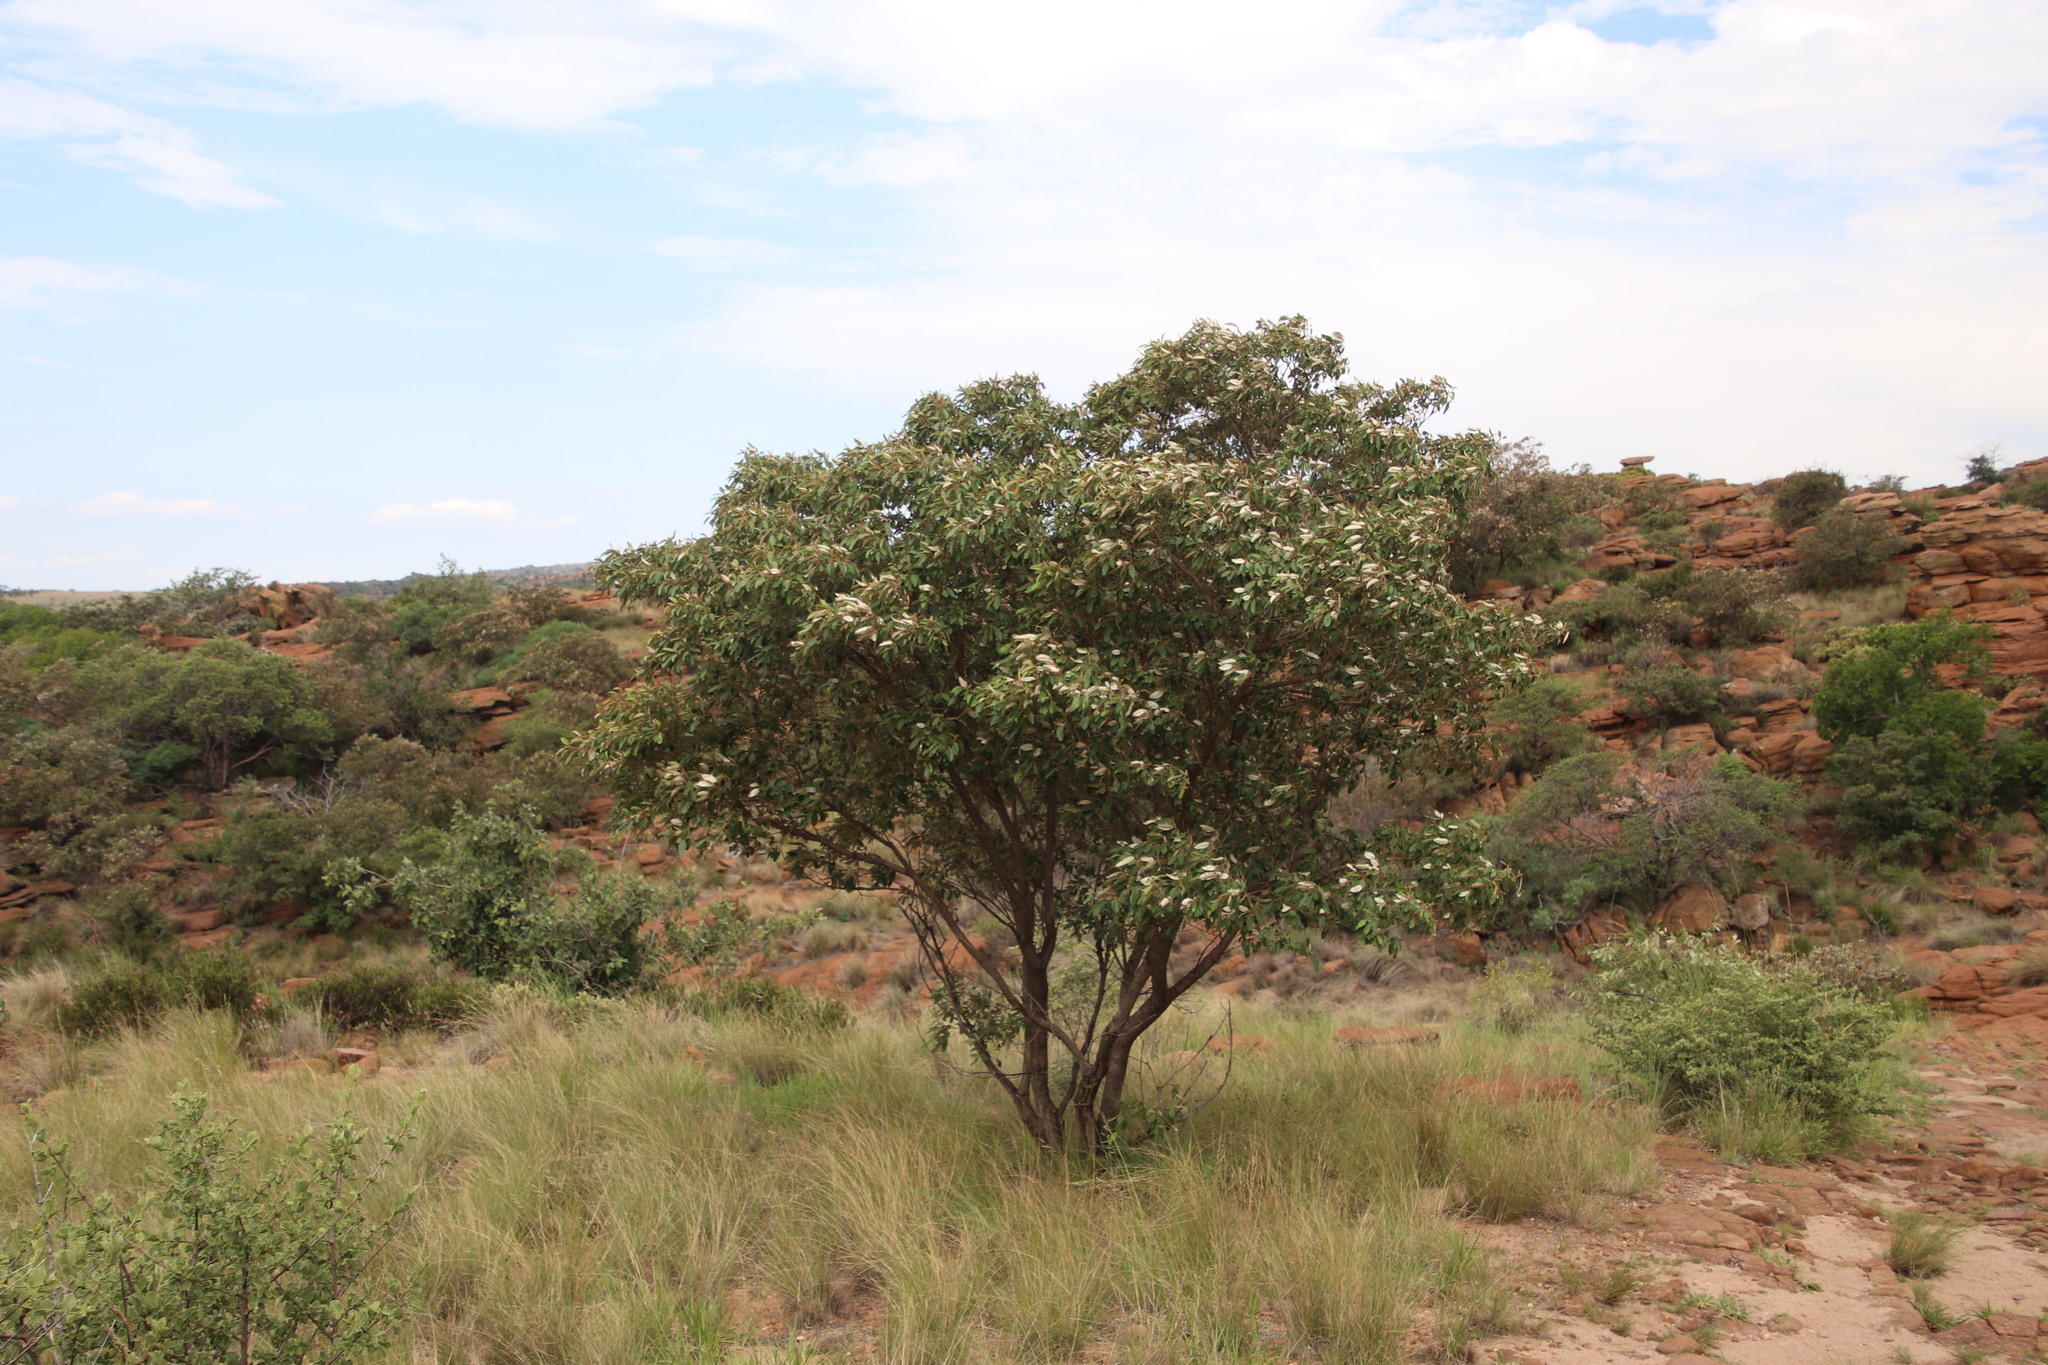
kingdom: Plantae
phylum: Tracheophyta
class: Magnoliopsida
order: Malpighiales
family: Euphorbiaceae
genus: Croton
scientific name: Croton gratissimus
